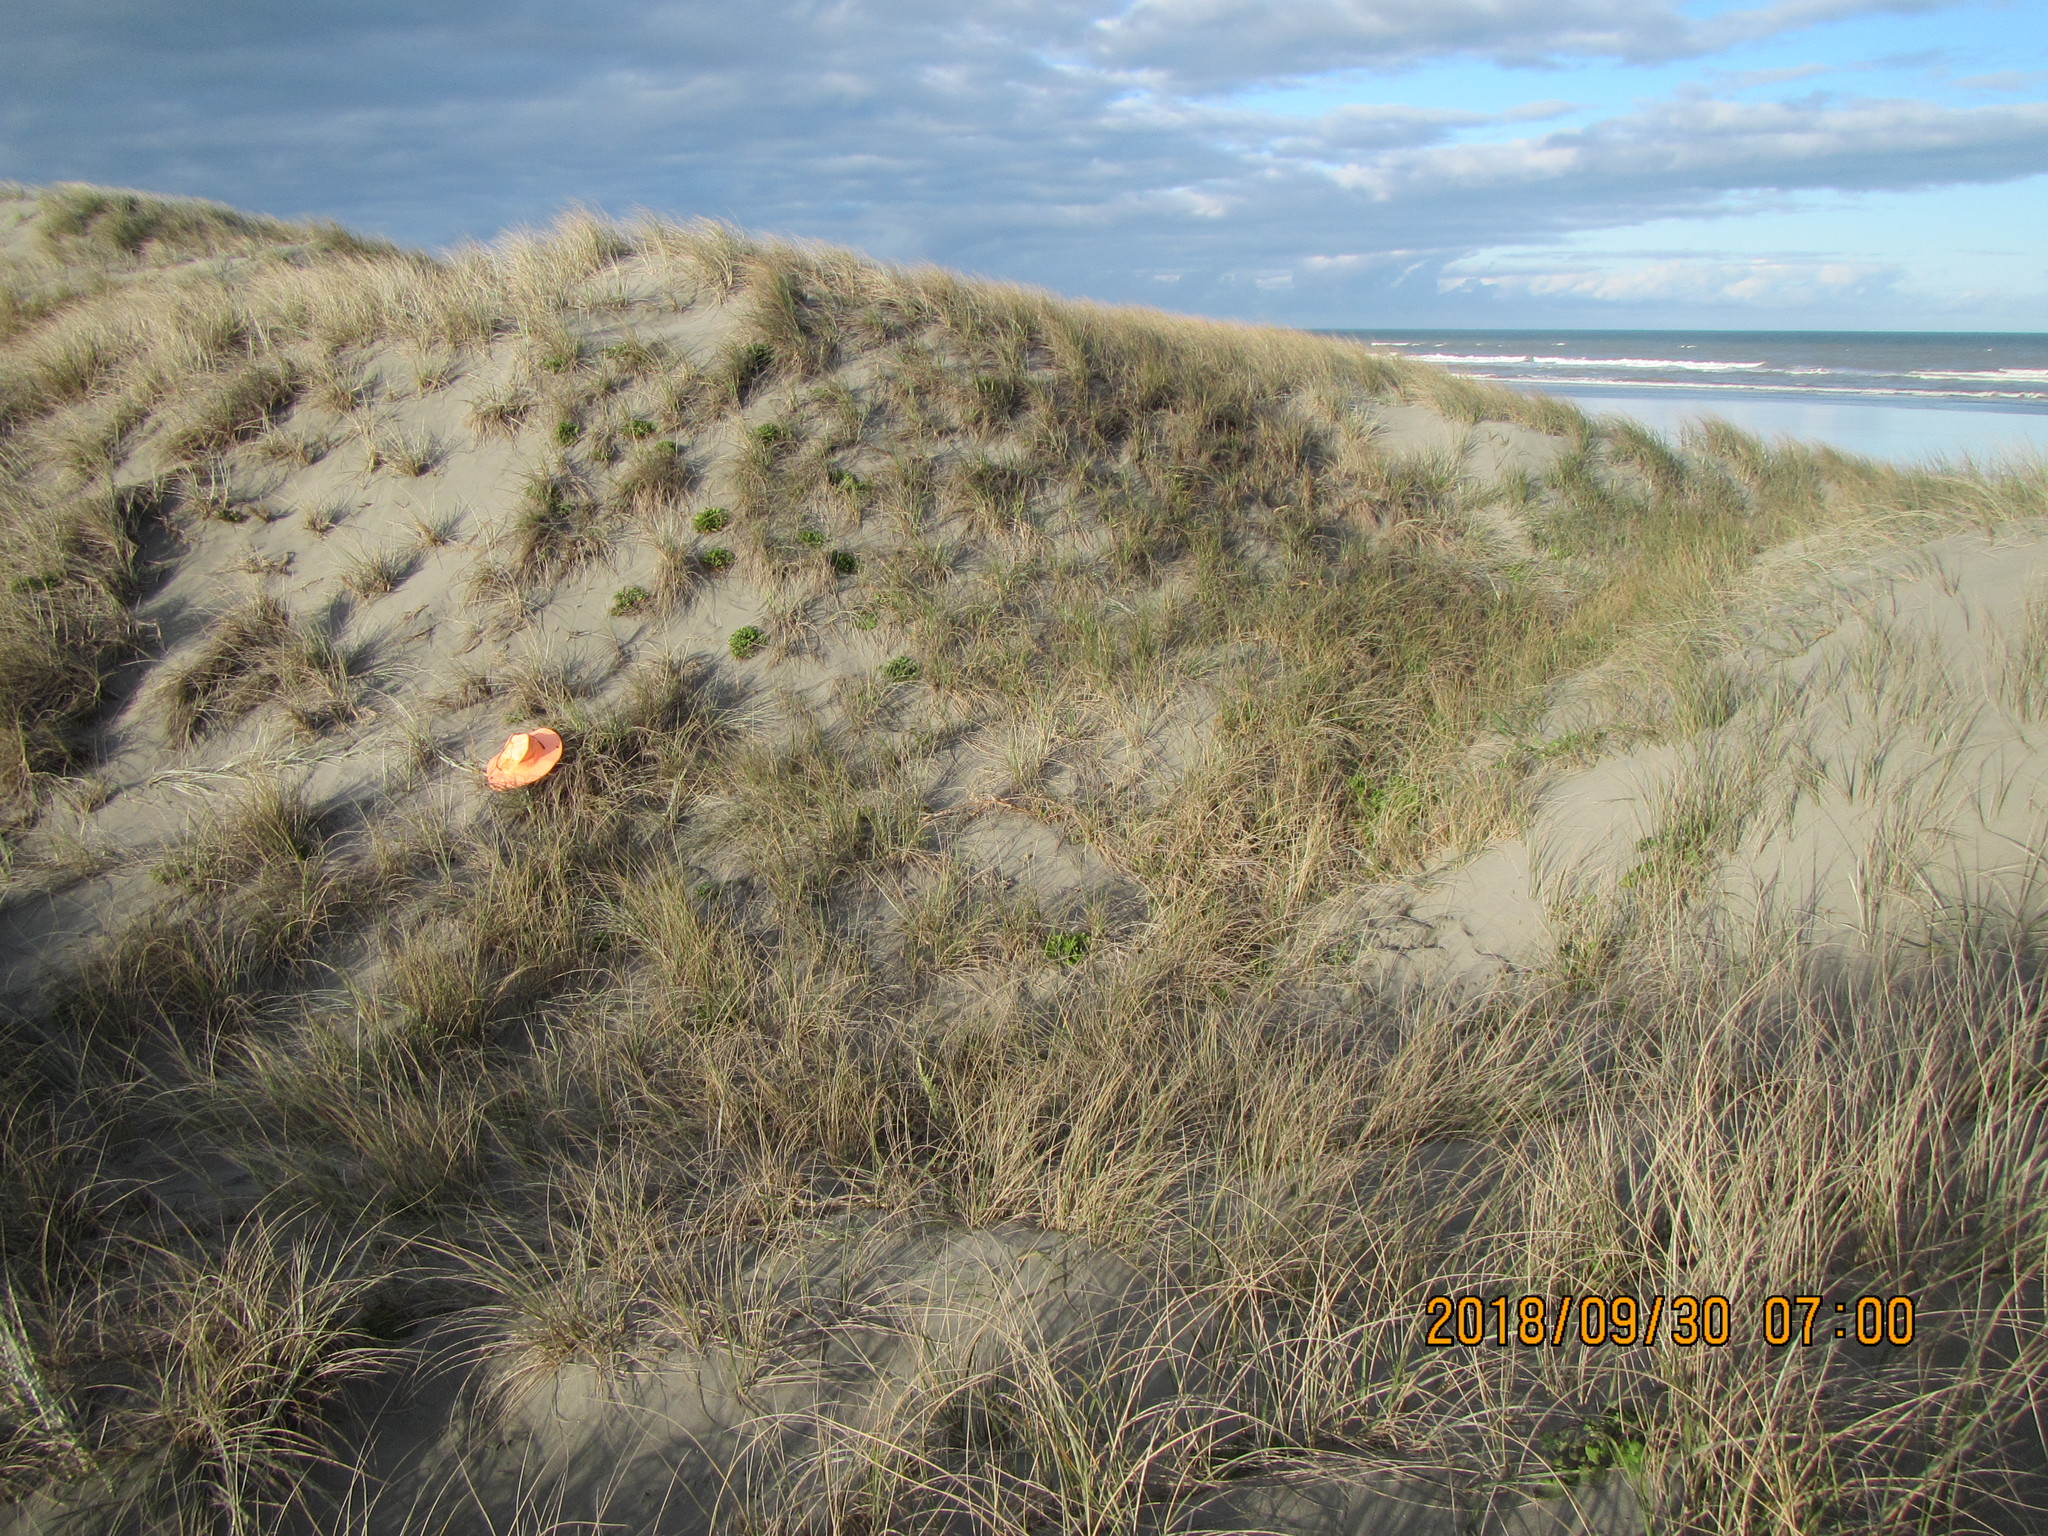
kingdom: Animalia
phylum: Arthropoda
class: Arachnida
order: Araneae
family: Mimetidae
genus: Australomimetus
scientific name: Australomimetus hartleyensis
